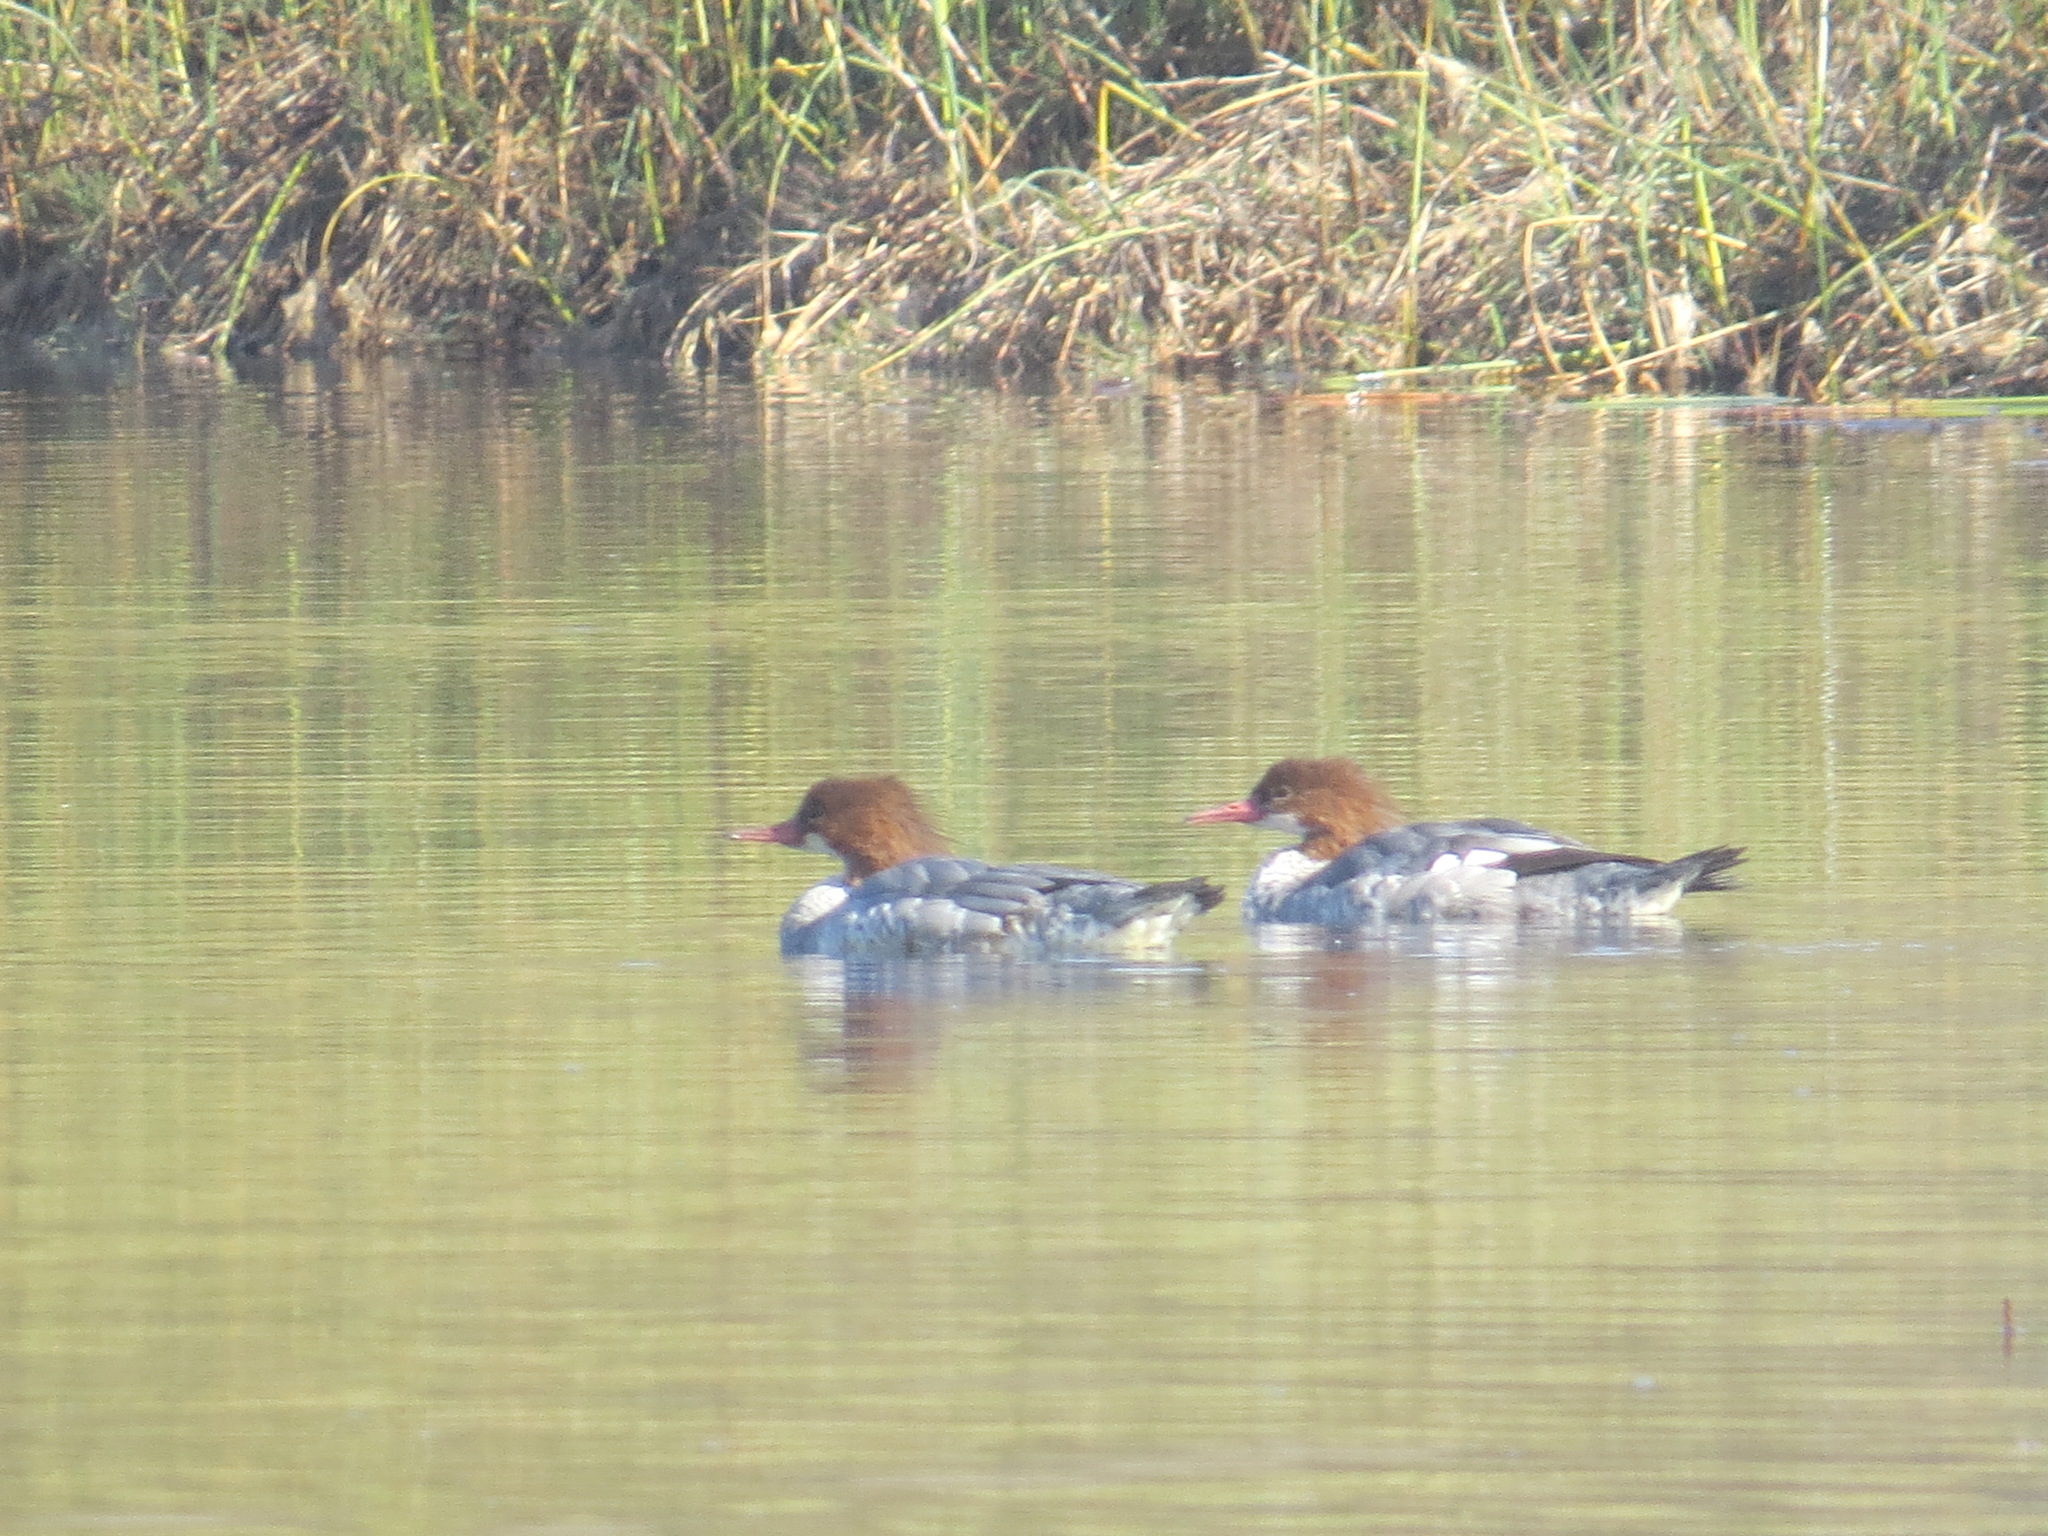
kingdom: Animalia
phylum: Chordata
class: Aves
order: Anseriformes
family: Anatidae
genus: Mergus
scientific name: Mergus merganser
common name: Common merganser
